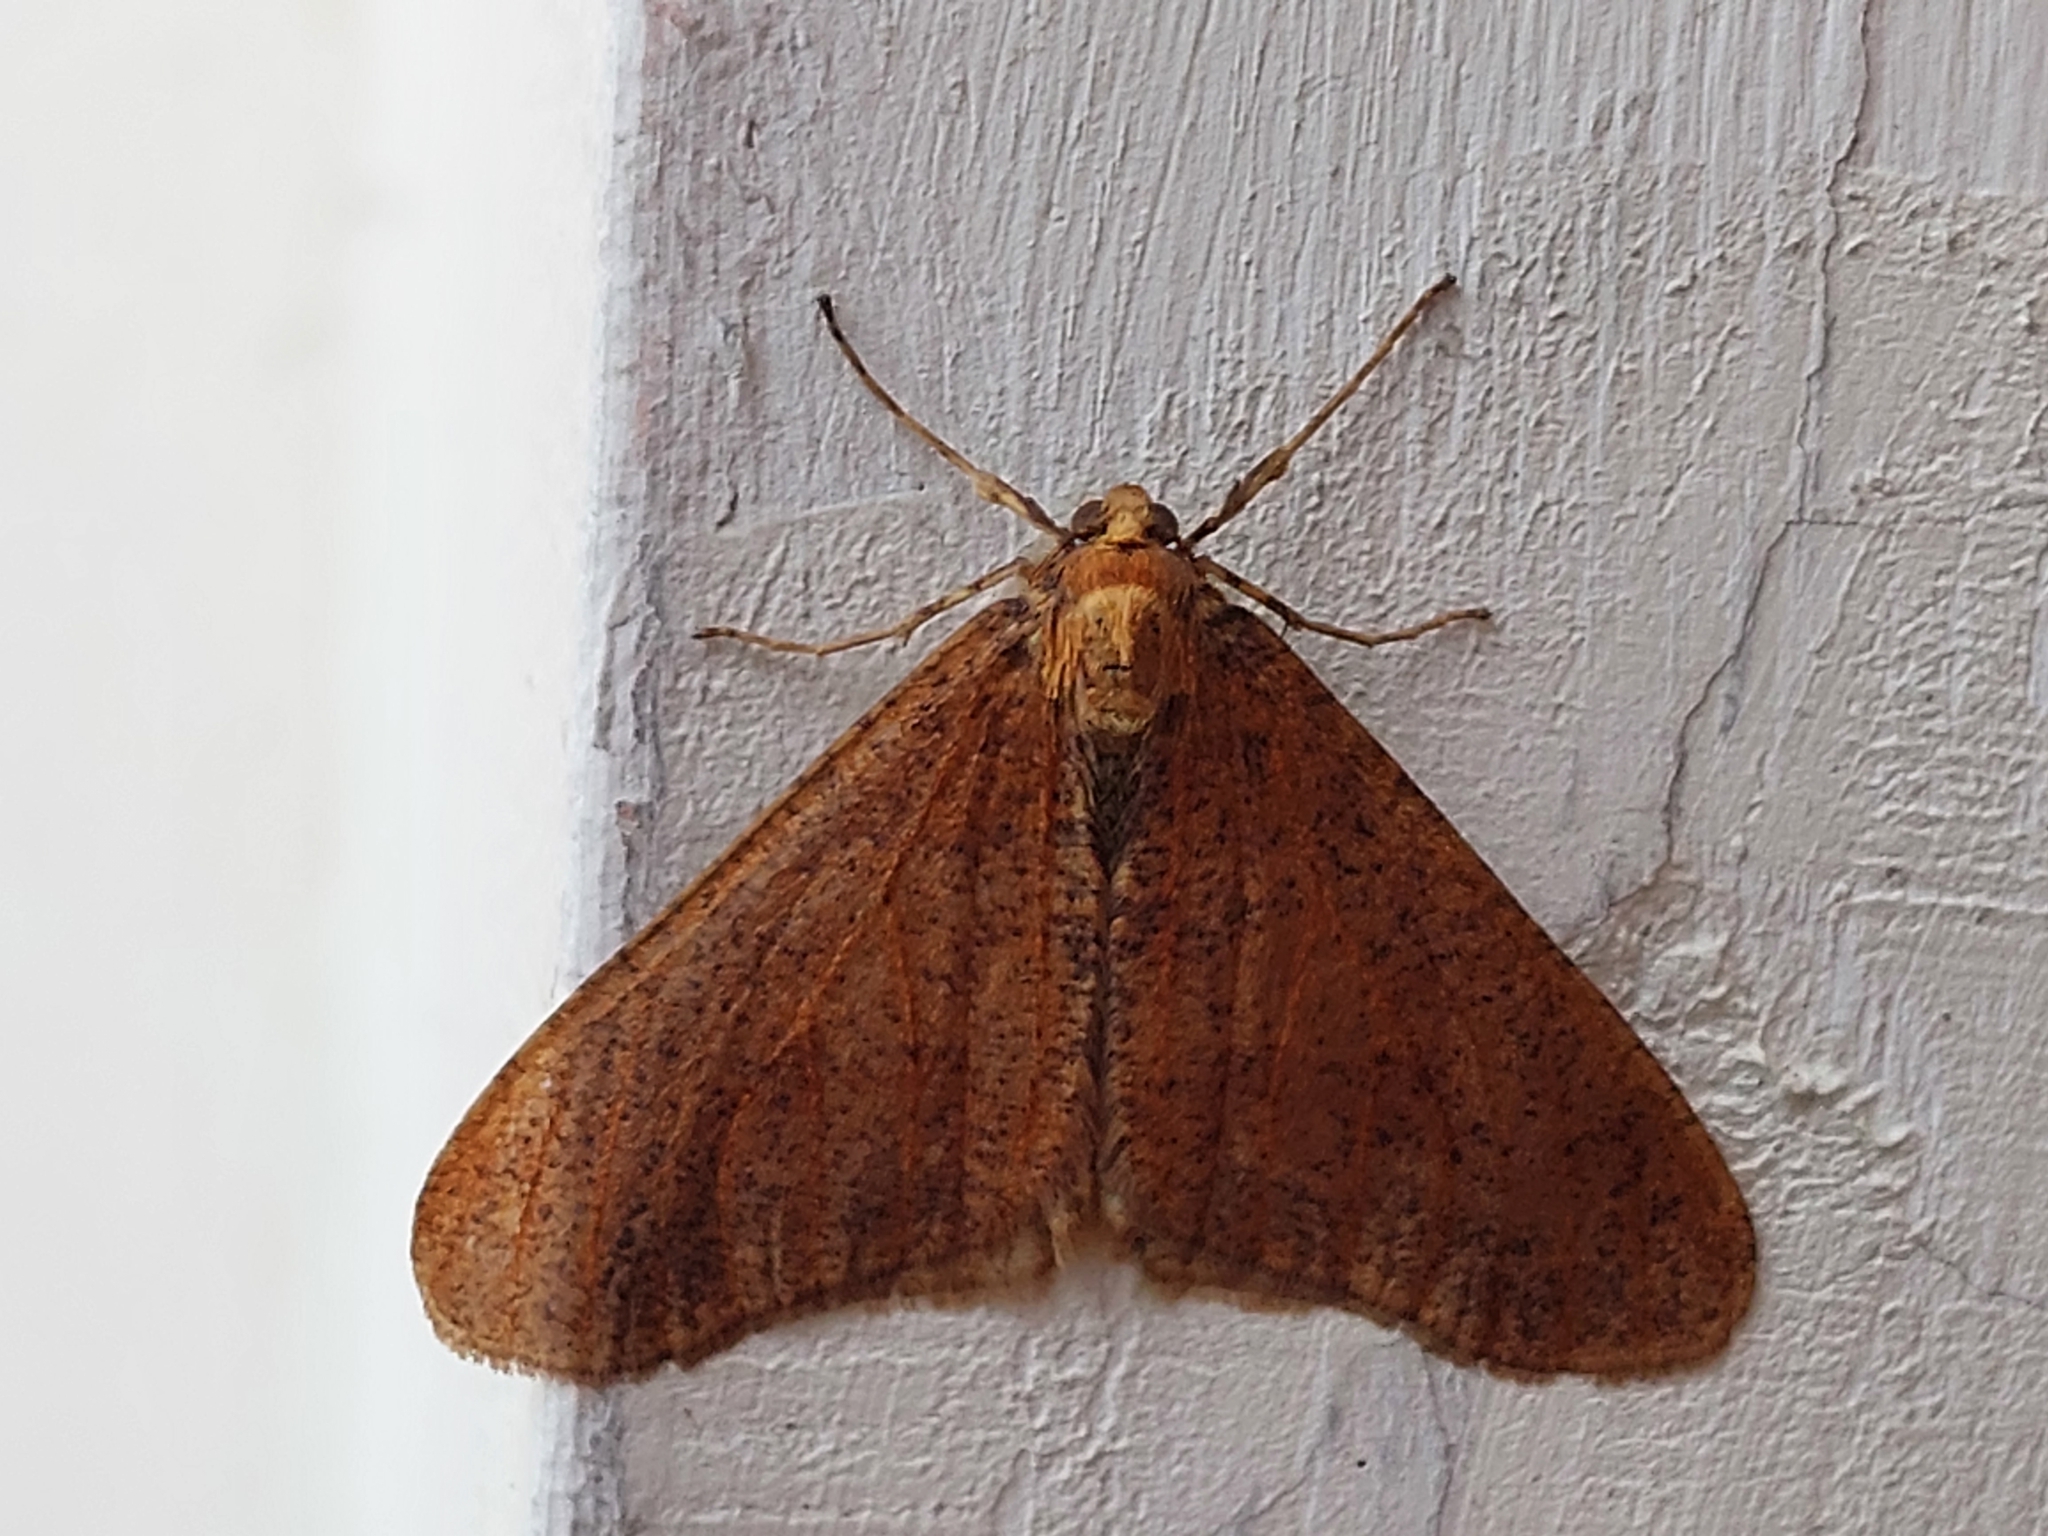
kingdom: Animalia
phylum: Arthropoda
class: Insecta
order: Lepidoptera
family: Geometridae
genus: Erannis
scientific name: Erannis defoliaria
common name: Mottled umber
